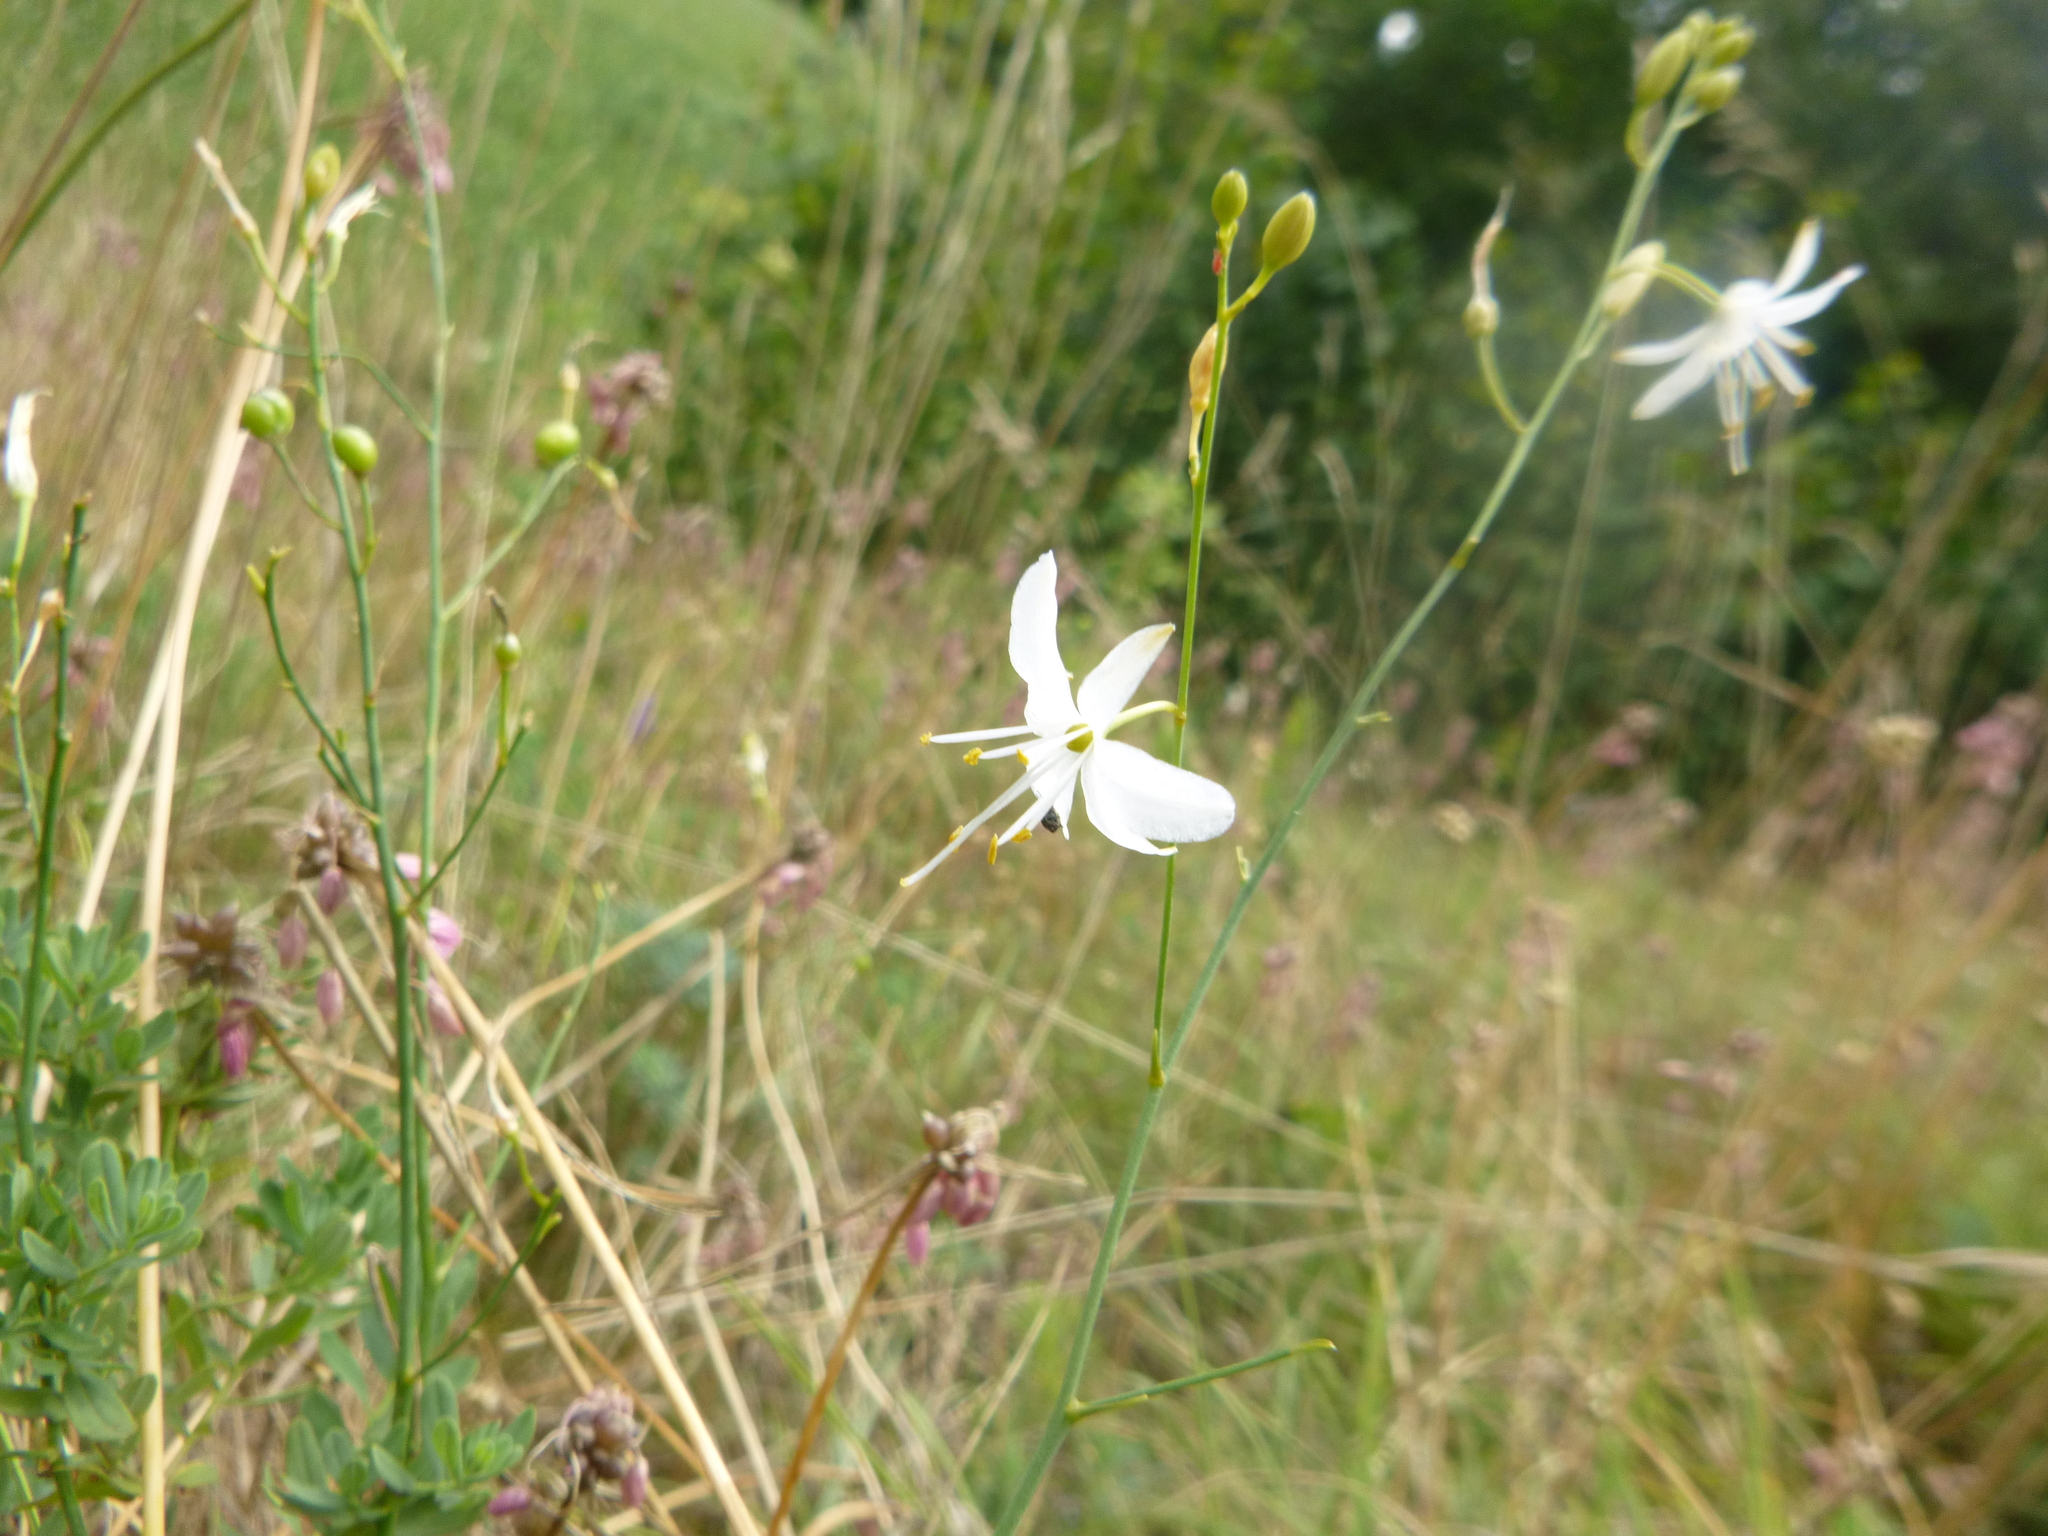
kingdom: Plantae
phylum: Tracheophyta
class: Liliopsida
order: Asparagales
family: Asparagaceae
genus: Anthericum
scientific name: Anthericum ramosum
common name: Branched st. bernard's-lily
